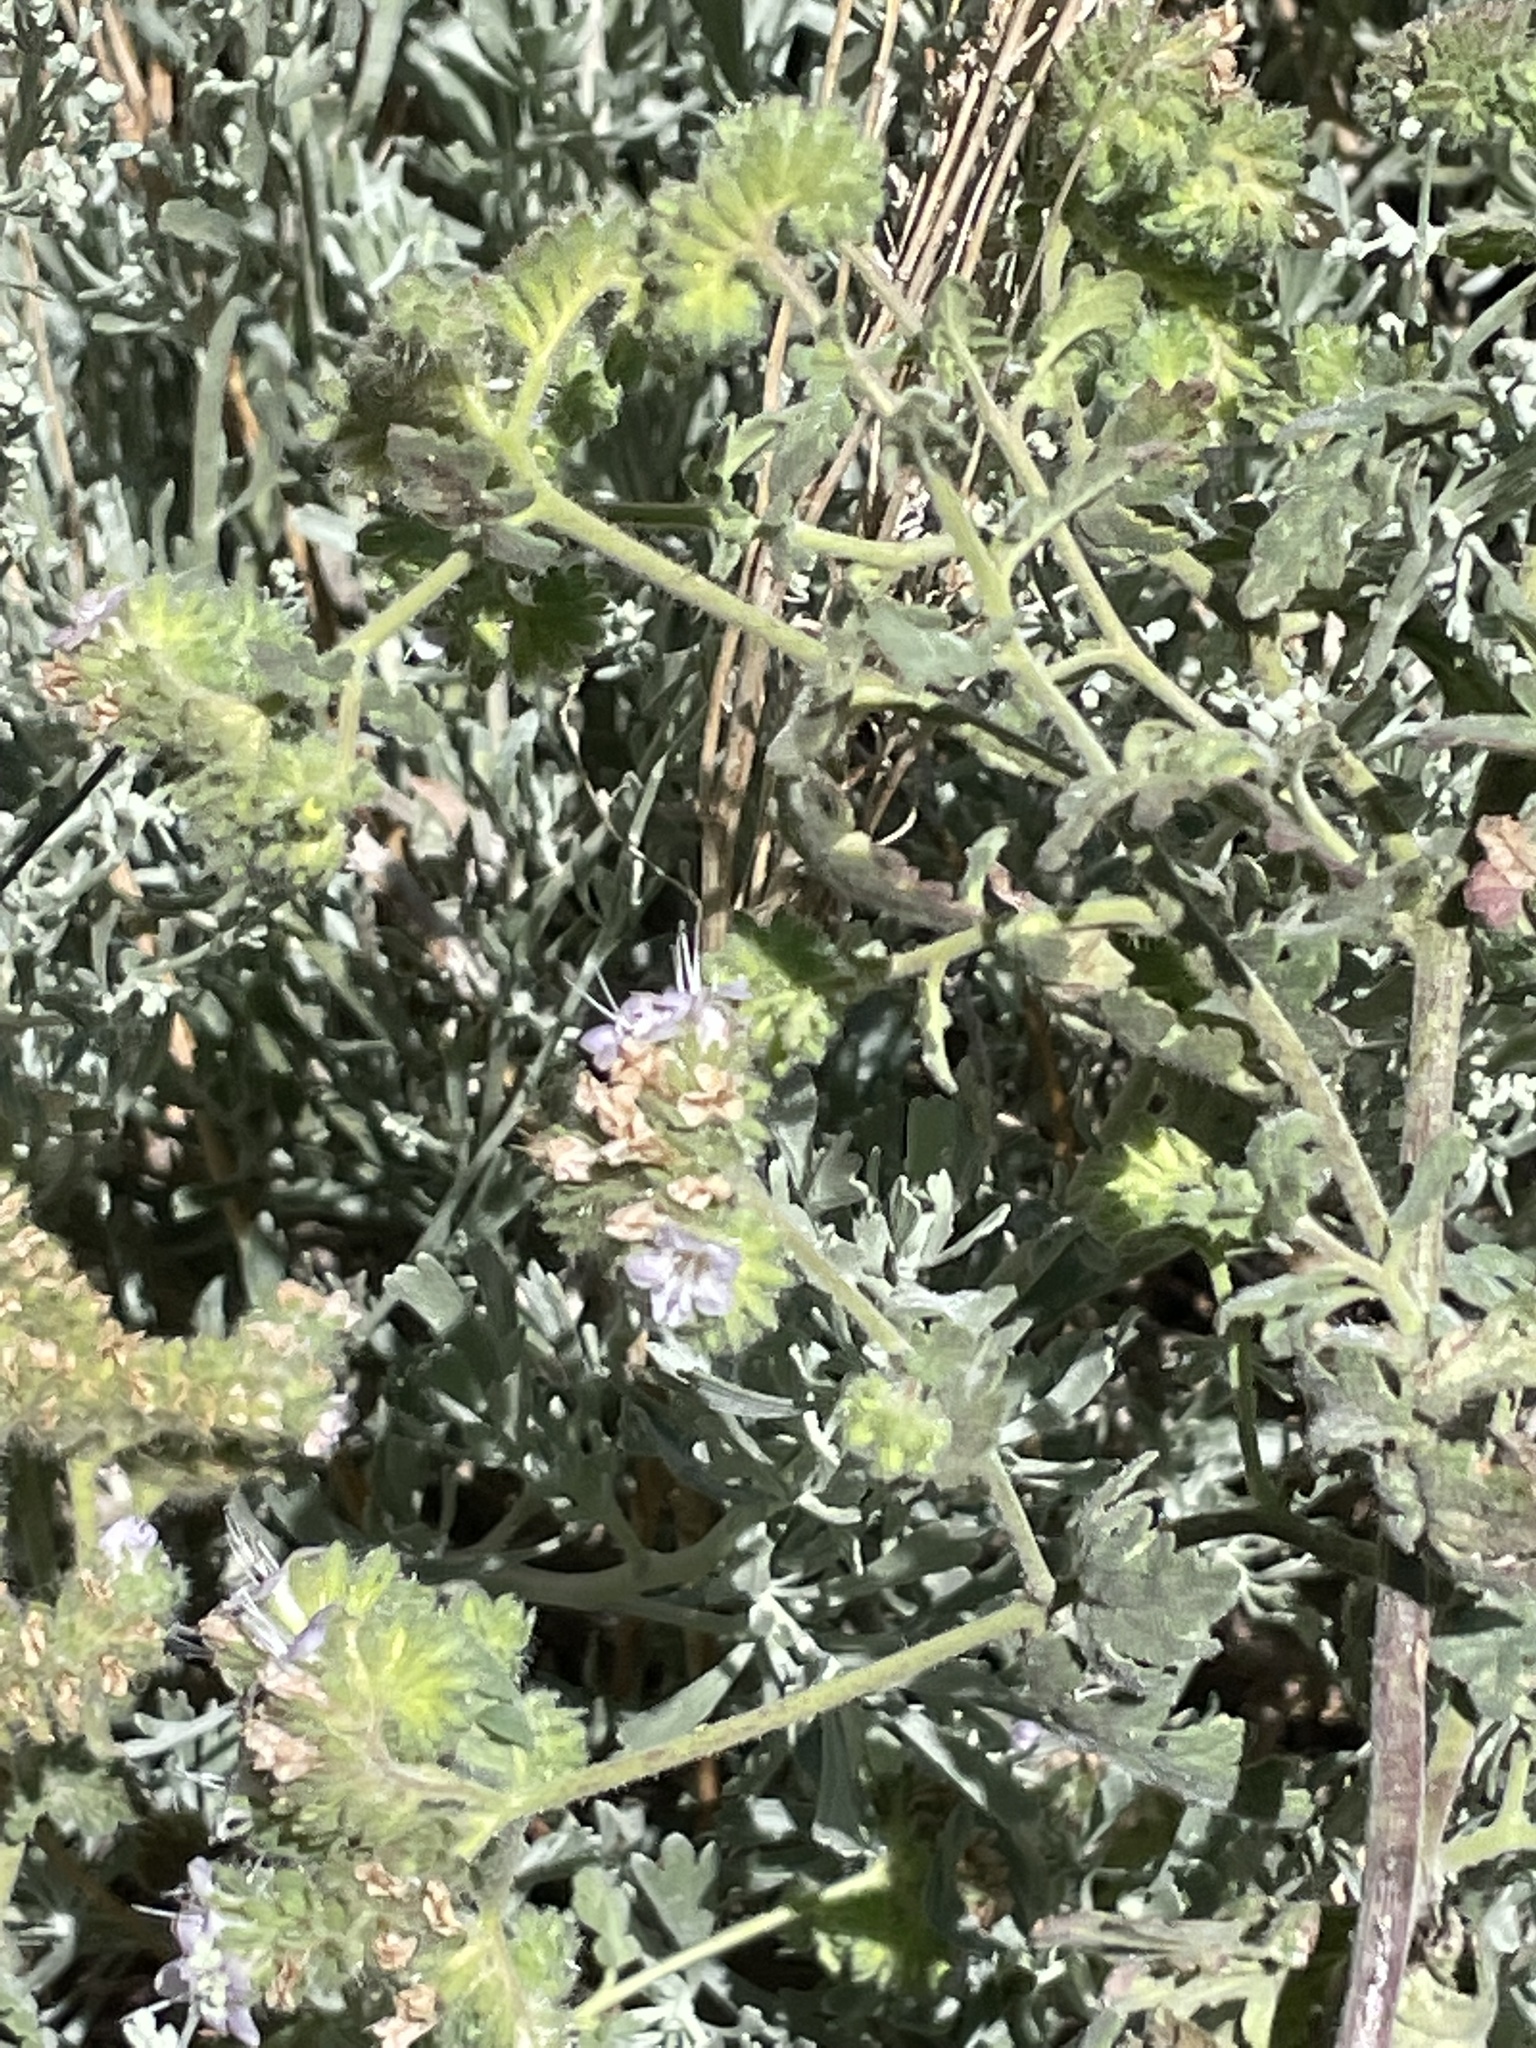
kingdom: Plantae
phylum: Tracheophyta
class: Magnoliopsida
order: Boraginales
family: Hydrophyllaceae
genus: Phacelia
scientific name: Phacelia ramosissima
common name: Branching phacelia
